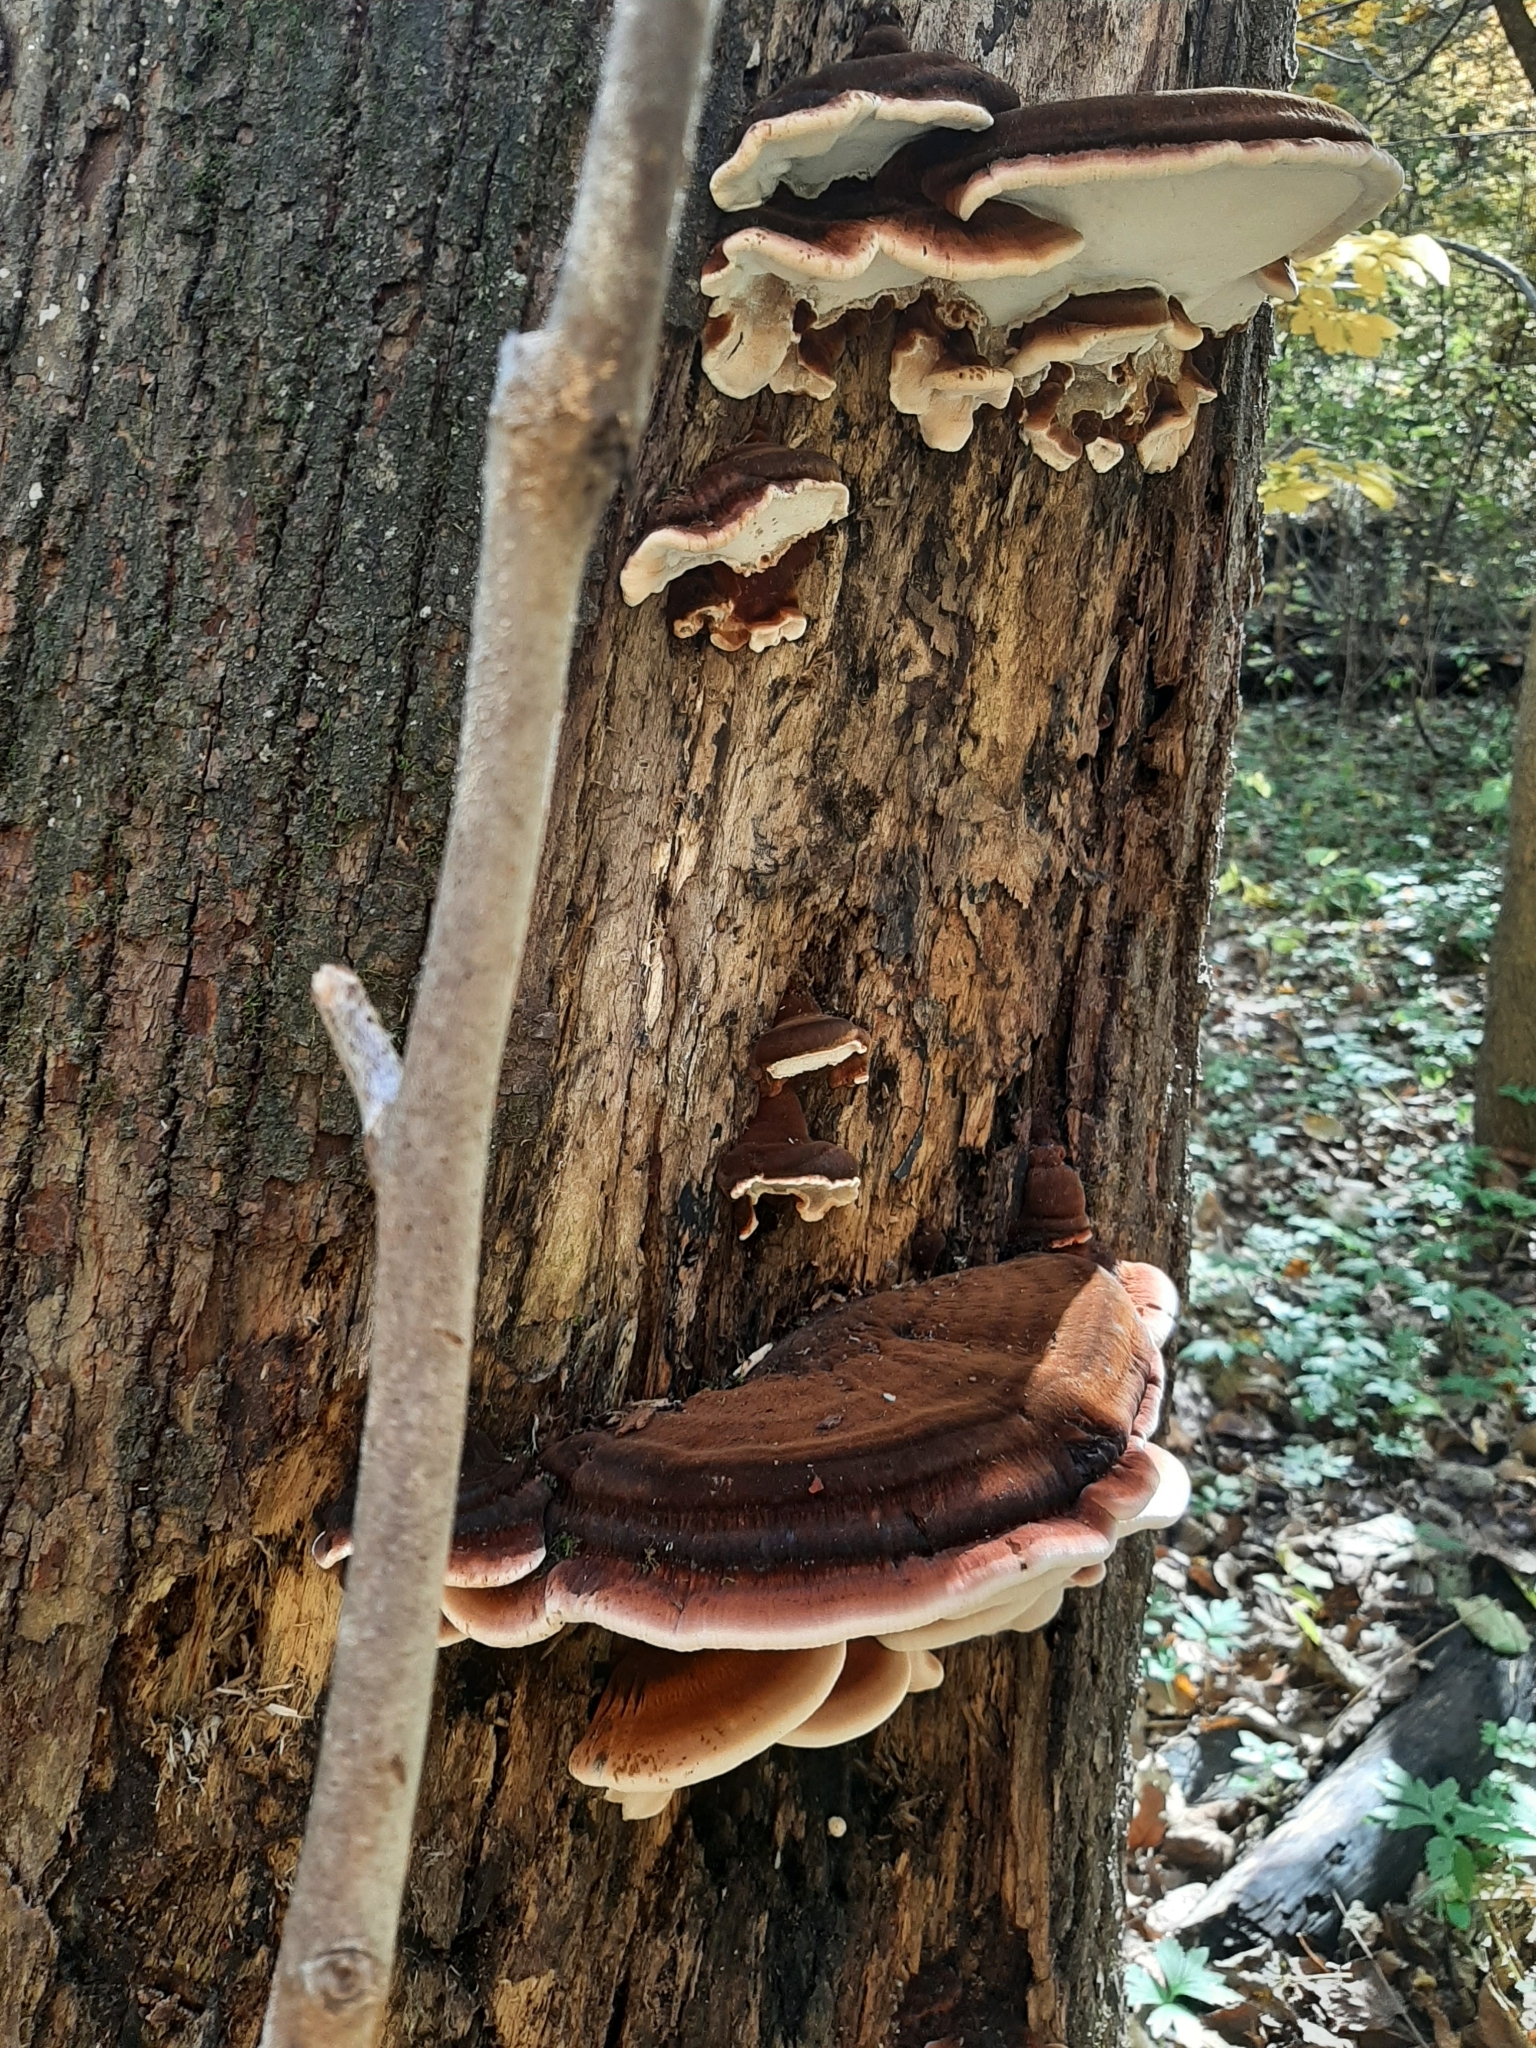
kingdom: Fungi
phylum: Basidiomycota
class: Agaricomycetes
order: Polyporales
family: Ischnodermataceae
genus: Ischnoderma
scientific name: Ischnoderma resinosum
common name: Resinous polypore
